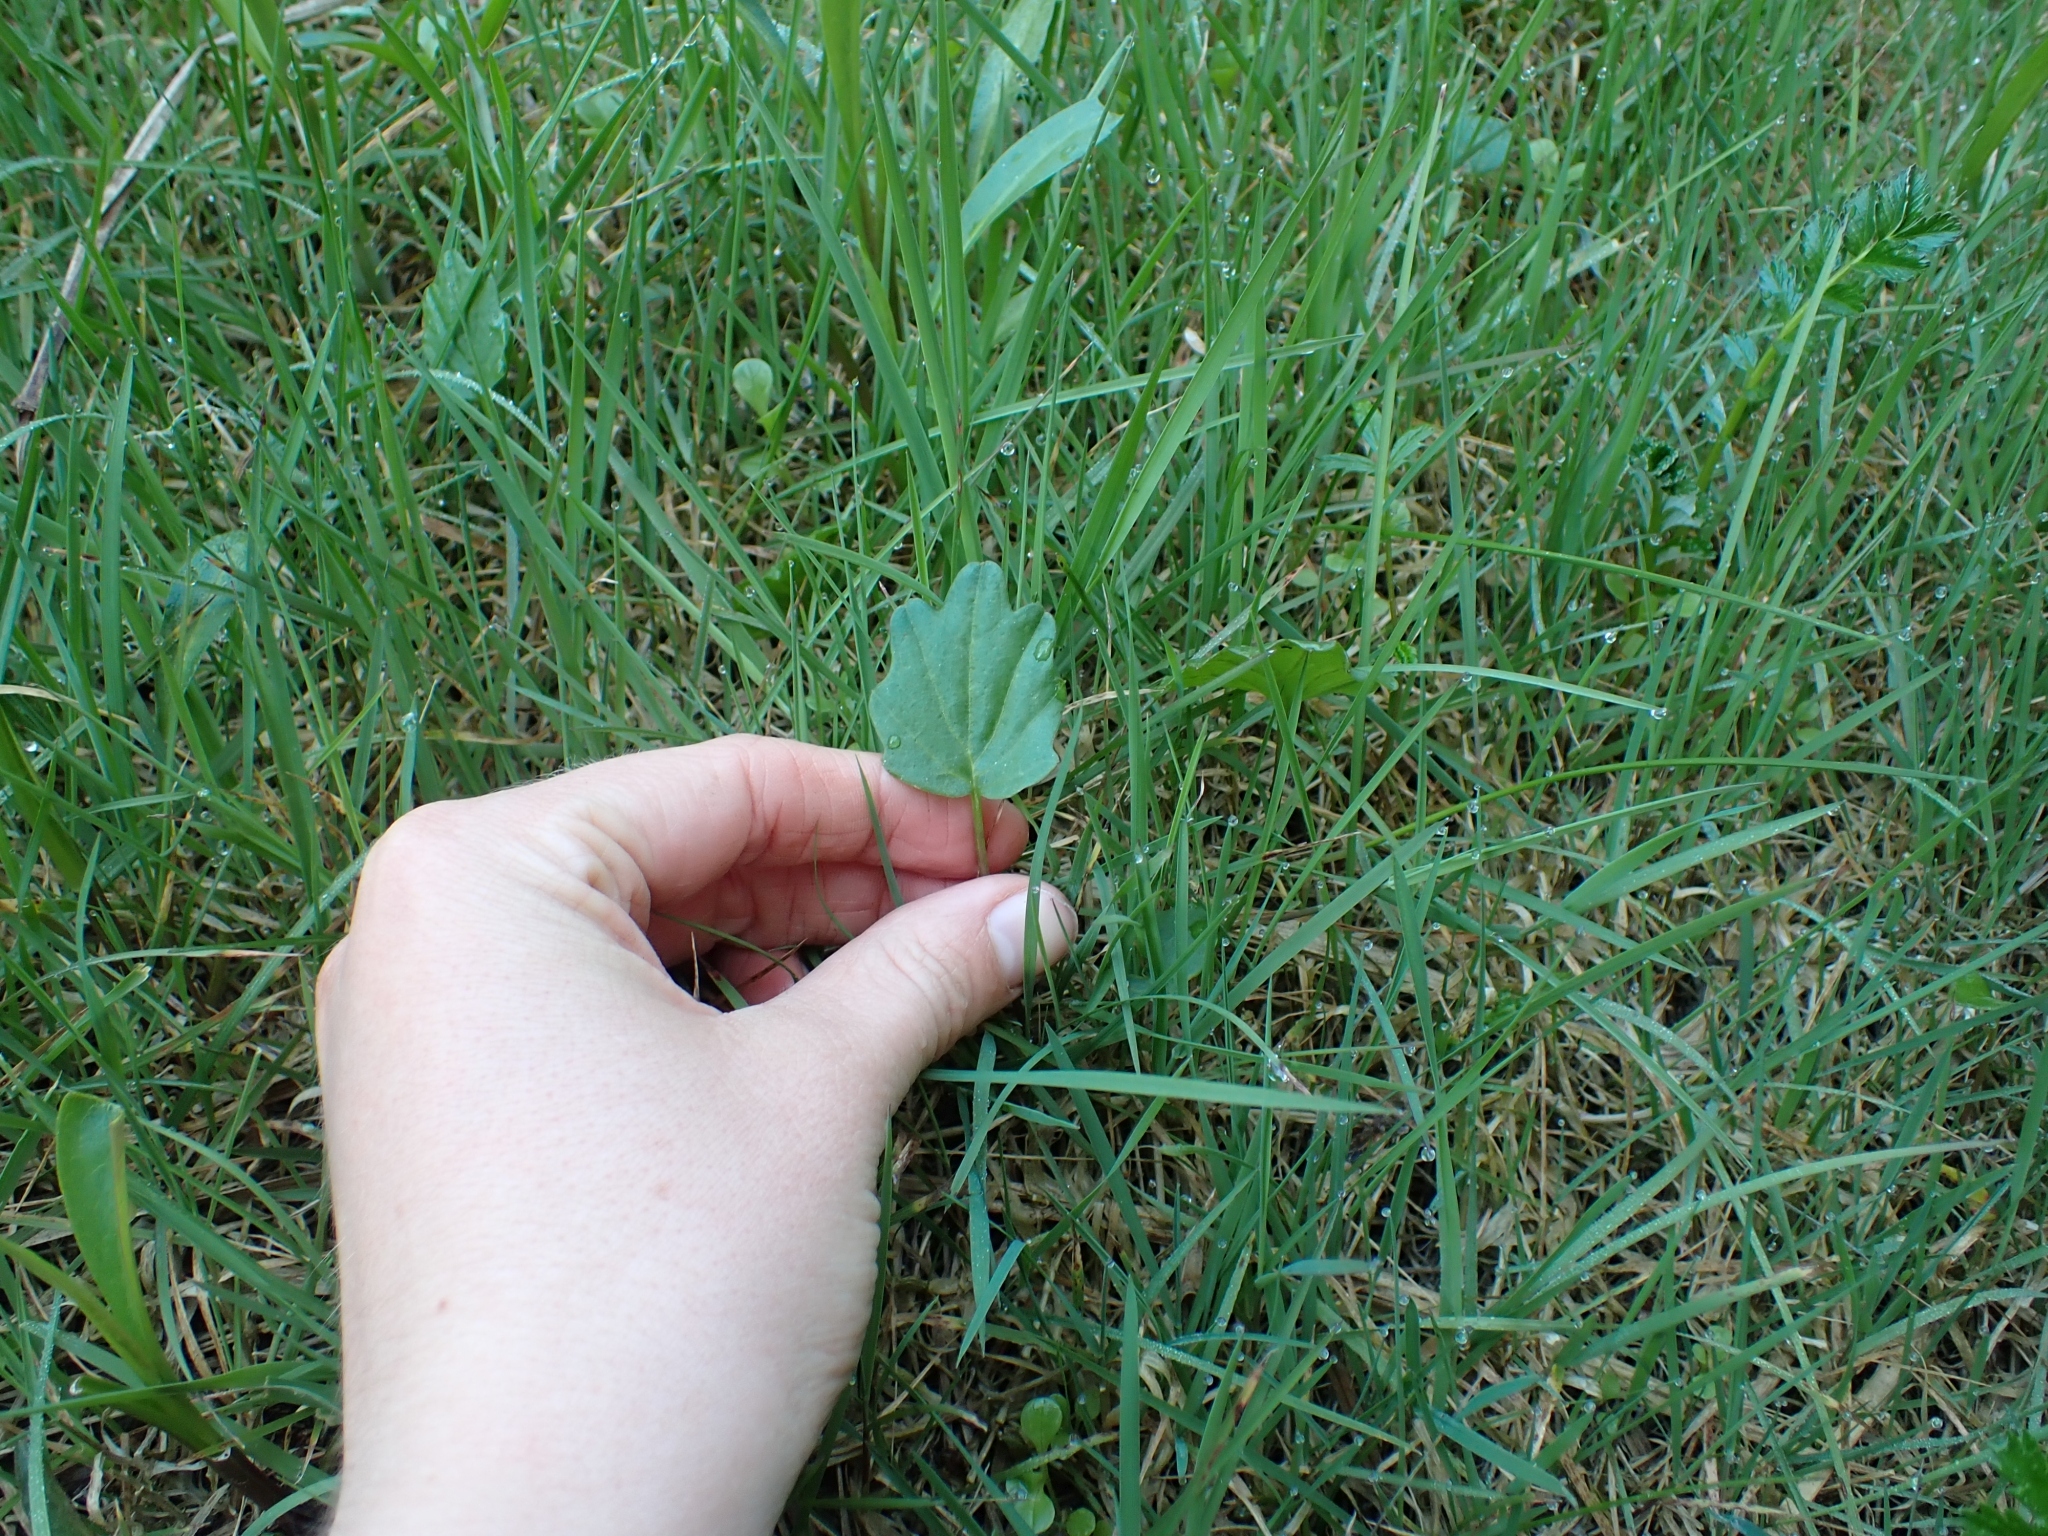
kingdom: Plantae
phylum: Tracheophyta
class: Magnoliopsida
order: Brassicales
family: Brassicaceae
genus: Cardamine
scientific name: Cardamine nuttallii
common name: Nuttall's toothwort
